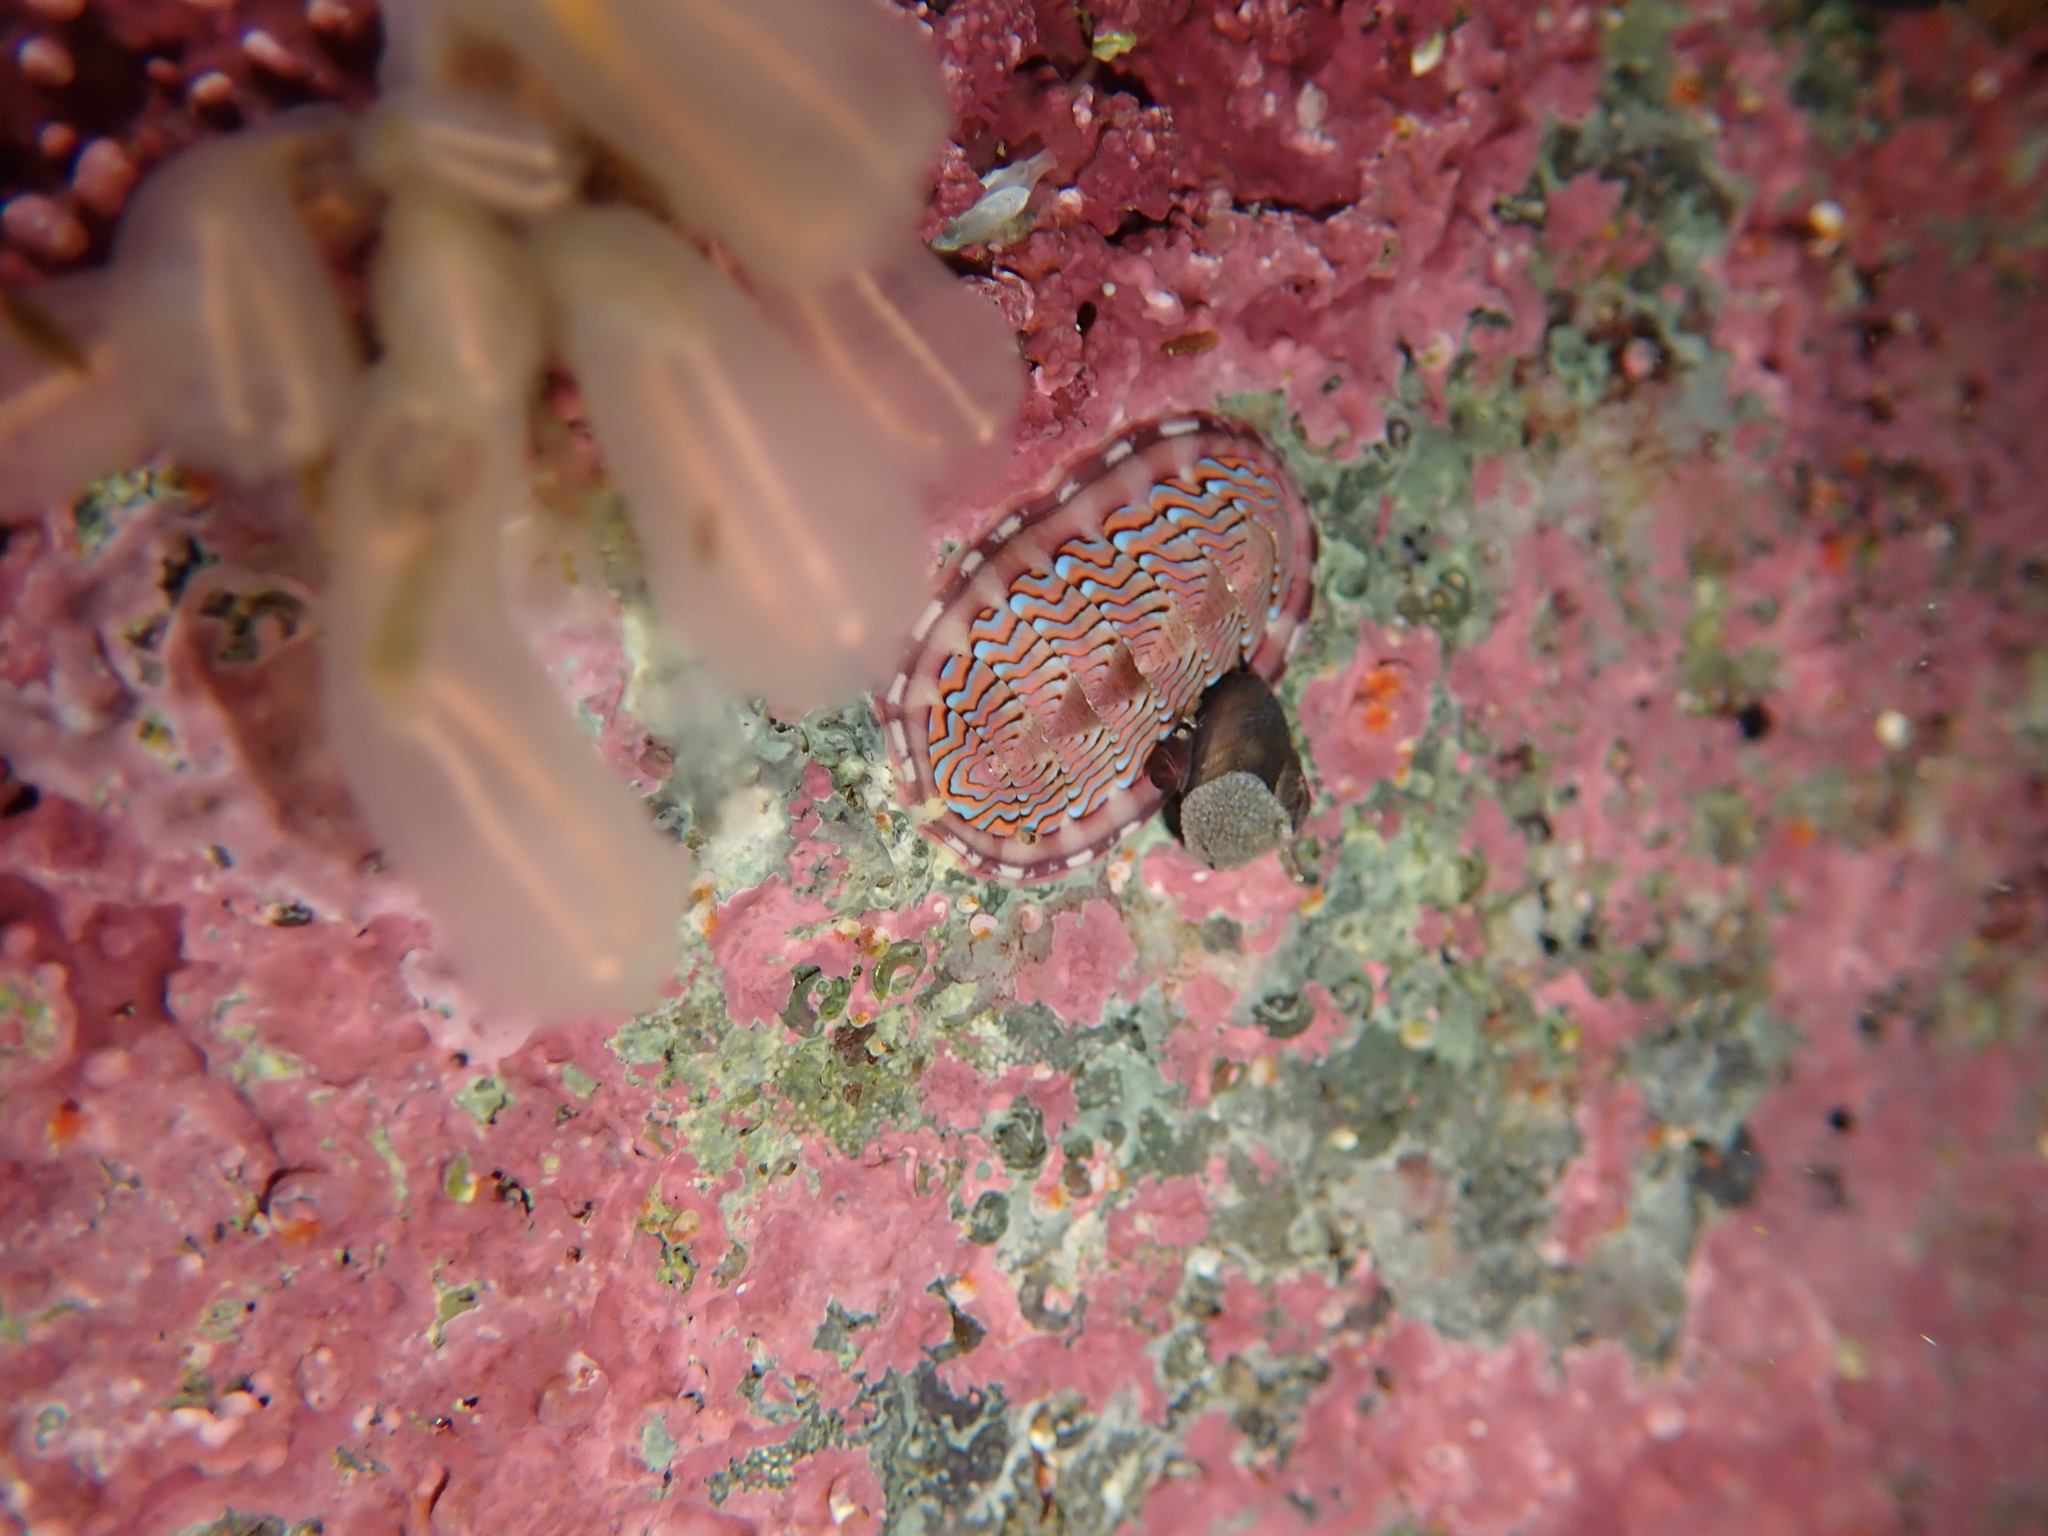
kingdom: Animalia
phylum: Mollusca
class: Polyplacophora
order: Chitonida
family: Tonicellidae
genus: Tonicella
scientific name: Tonicella lokii
